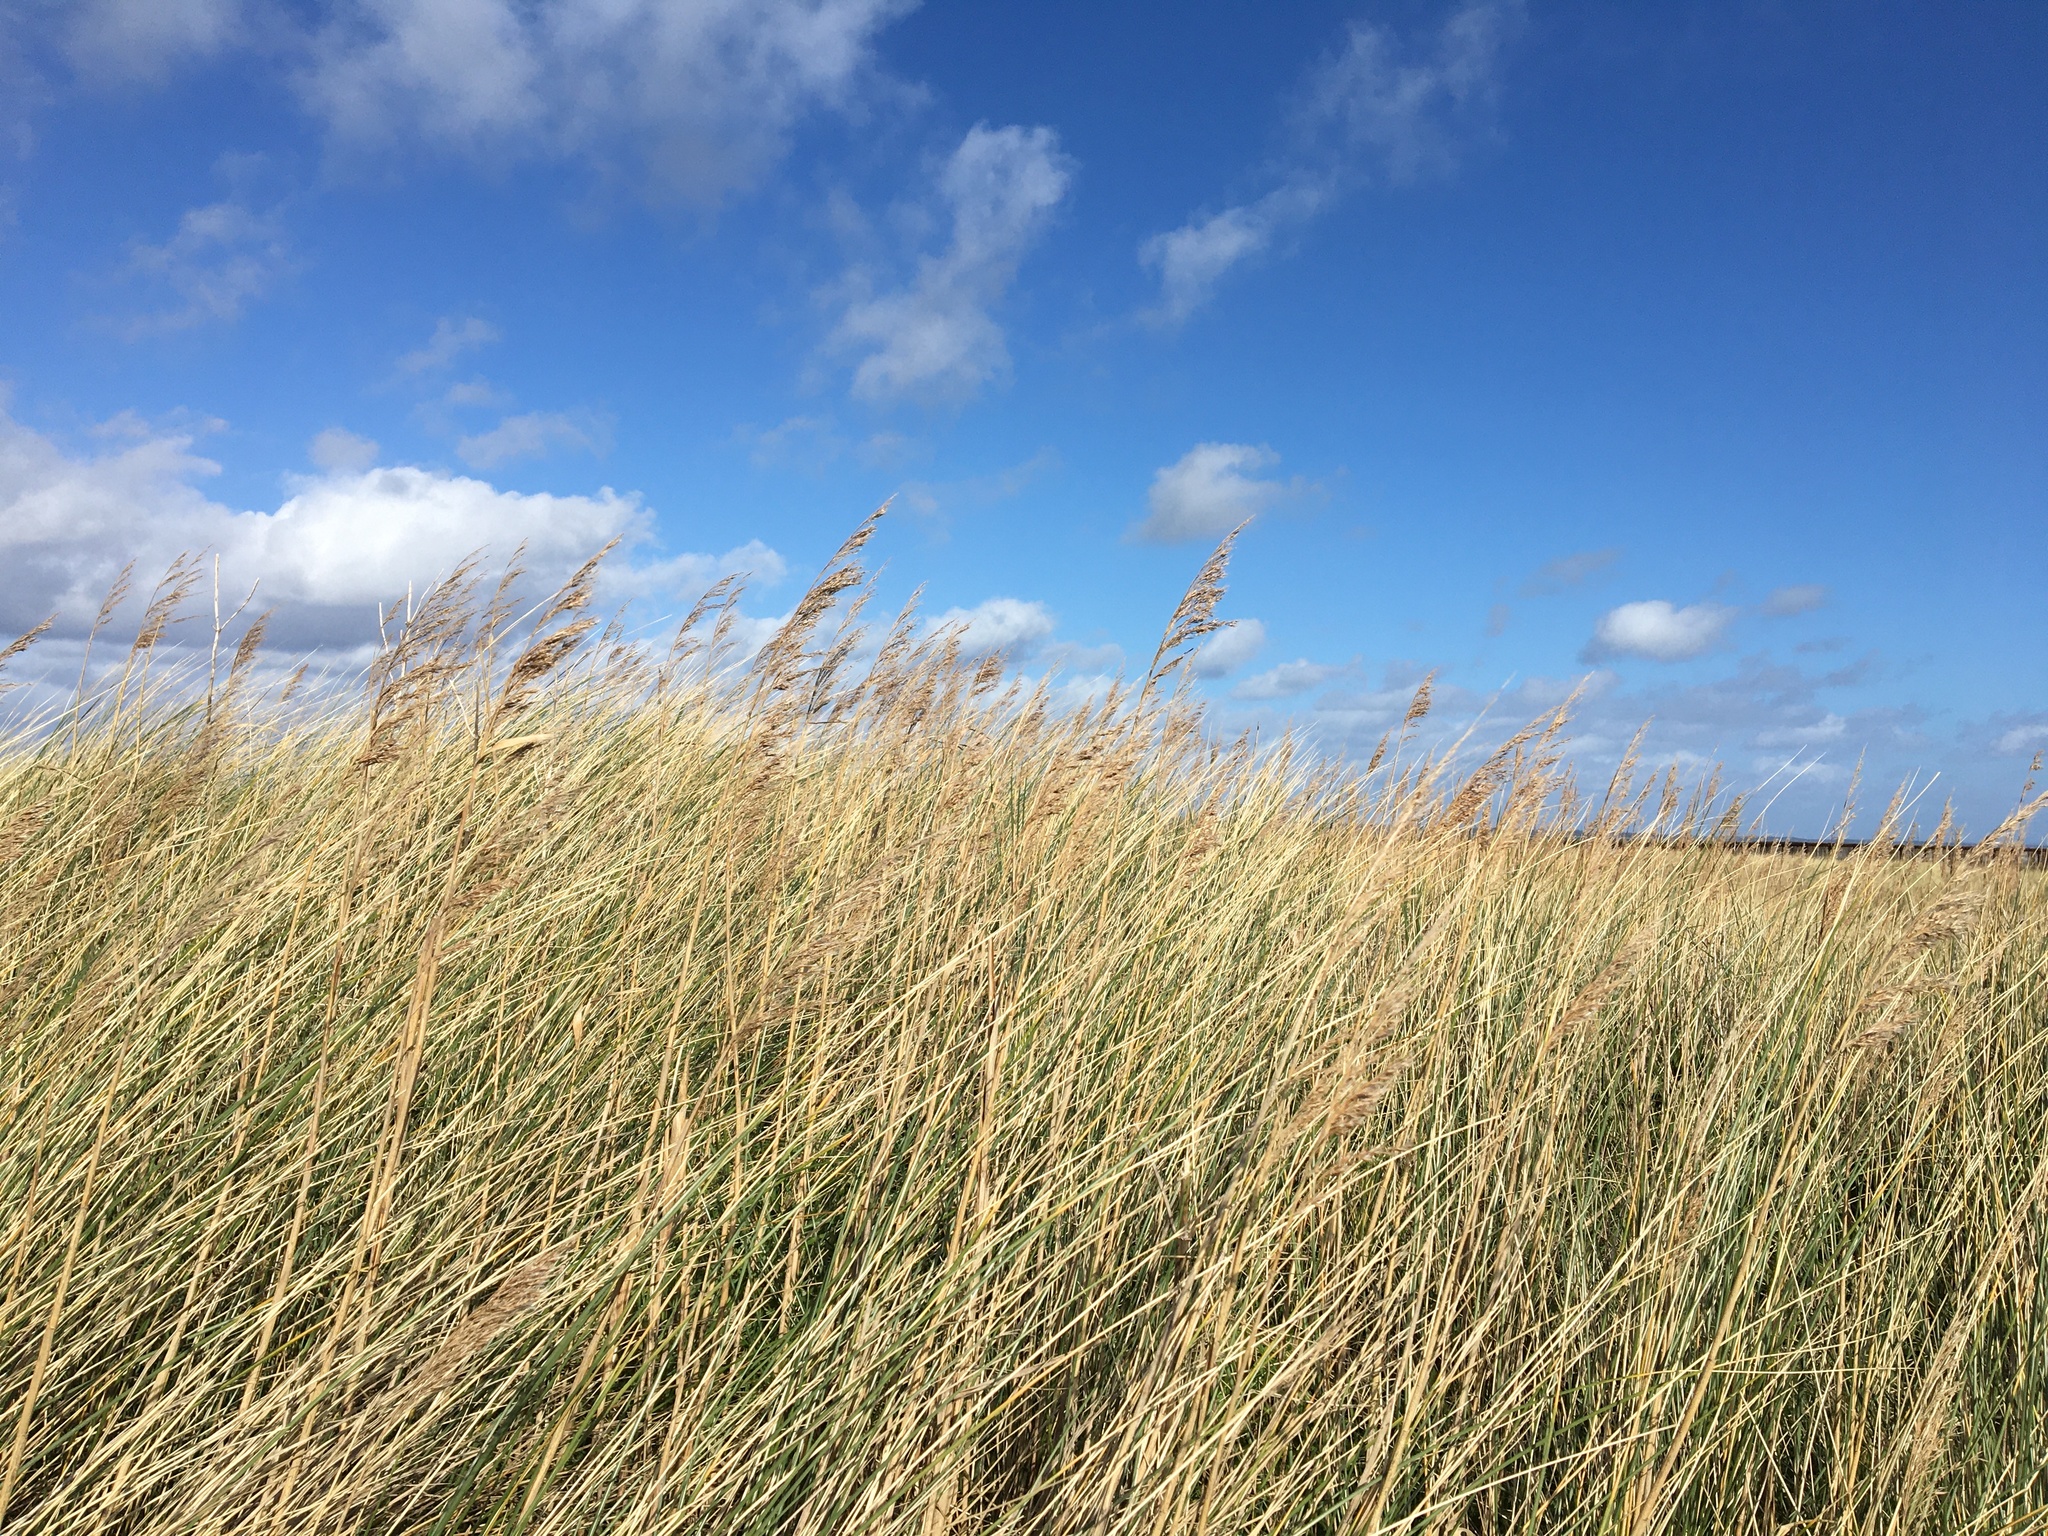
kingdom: Plantae
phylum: Tracheophyta
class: Liliopsida
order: Poales
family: Poaceae
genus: Phragmites
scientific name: Phragmites australis
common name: Common reed
